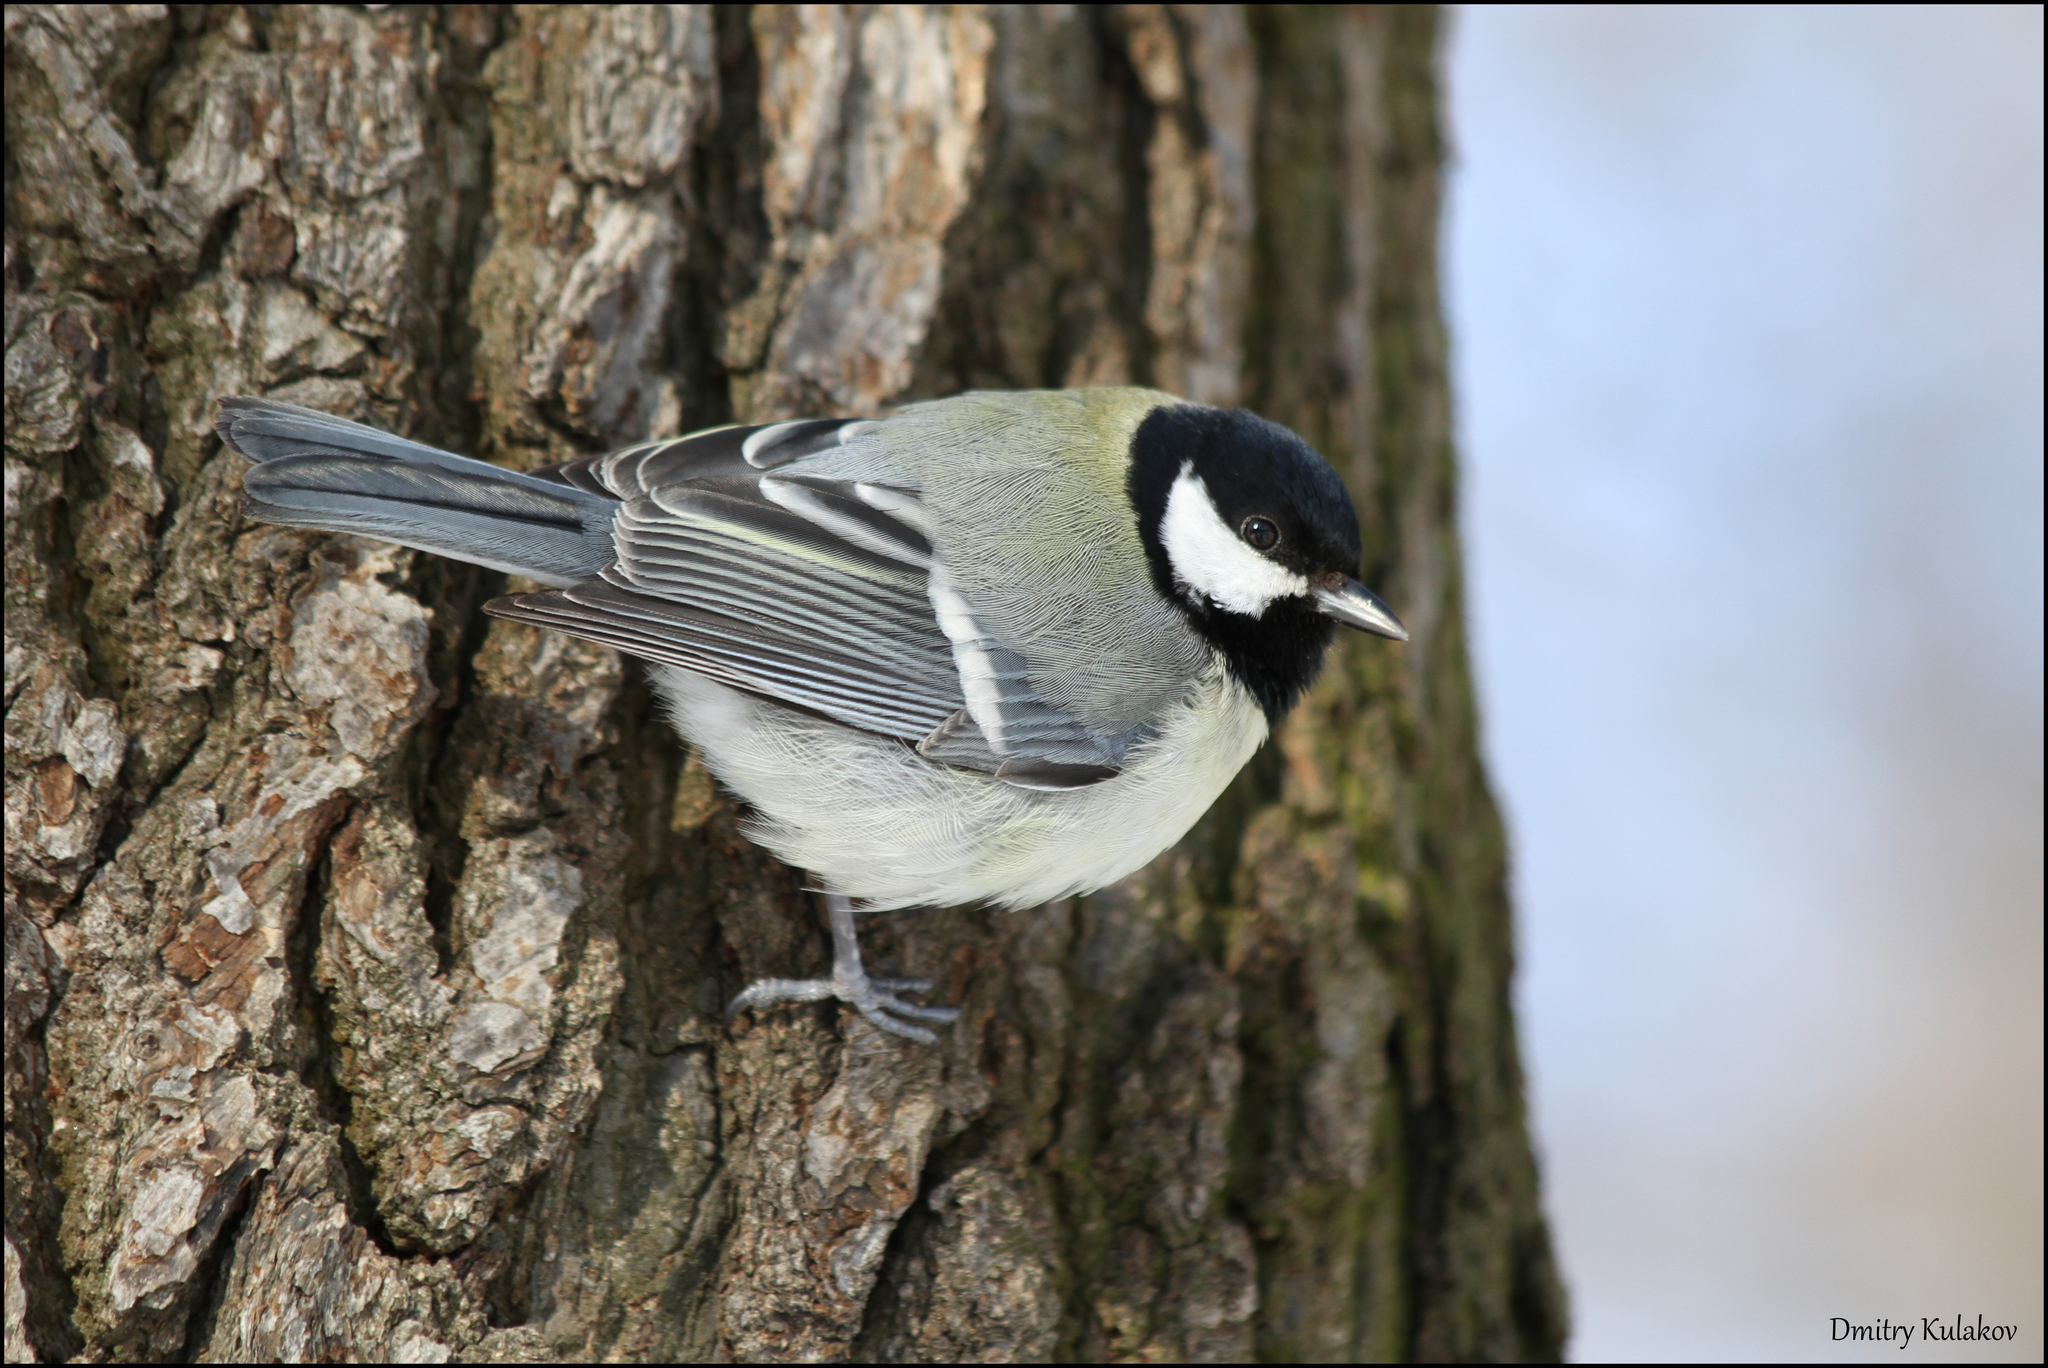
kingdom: Animalia
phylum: Chordata
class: Aves
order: Passeriformes
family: Paridae
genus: Parus
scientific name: Parus major
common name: Great tit
